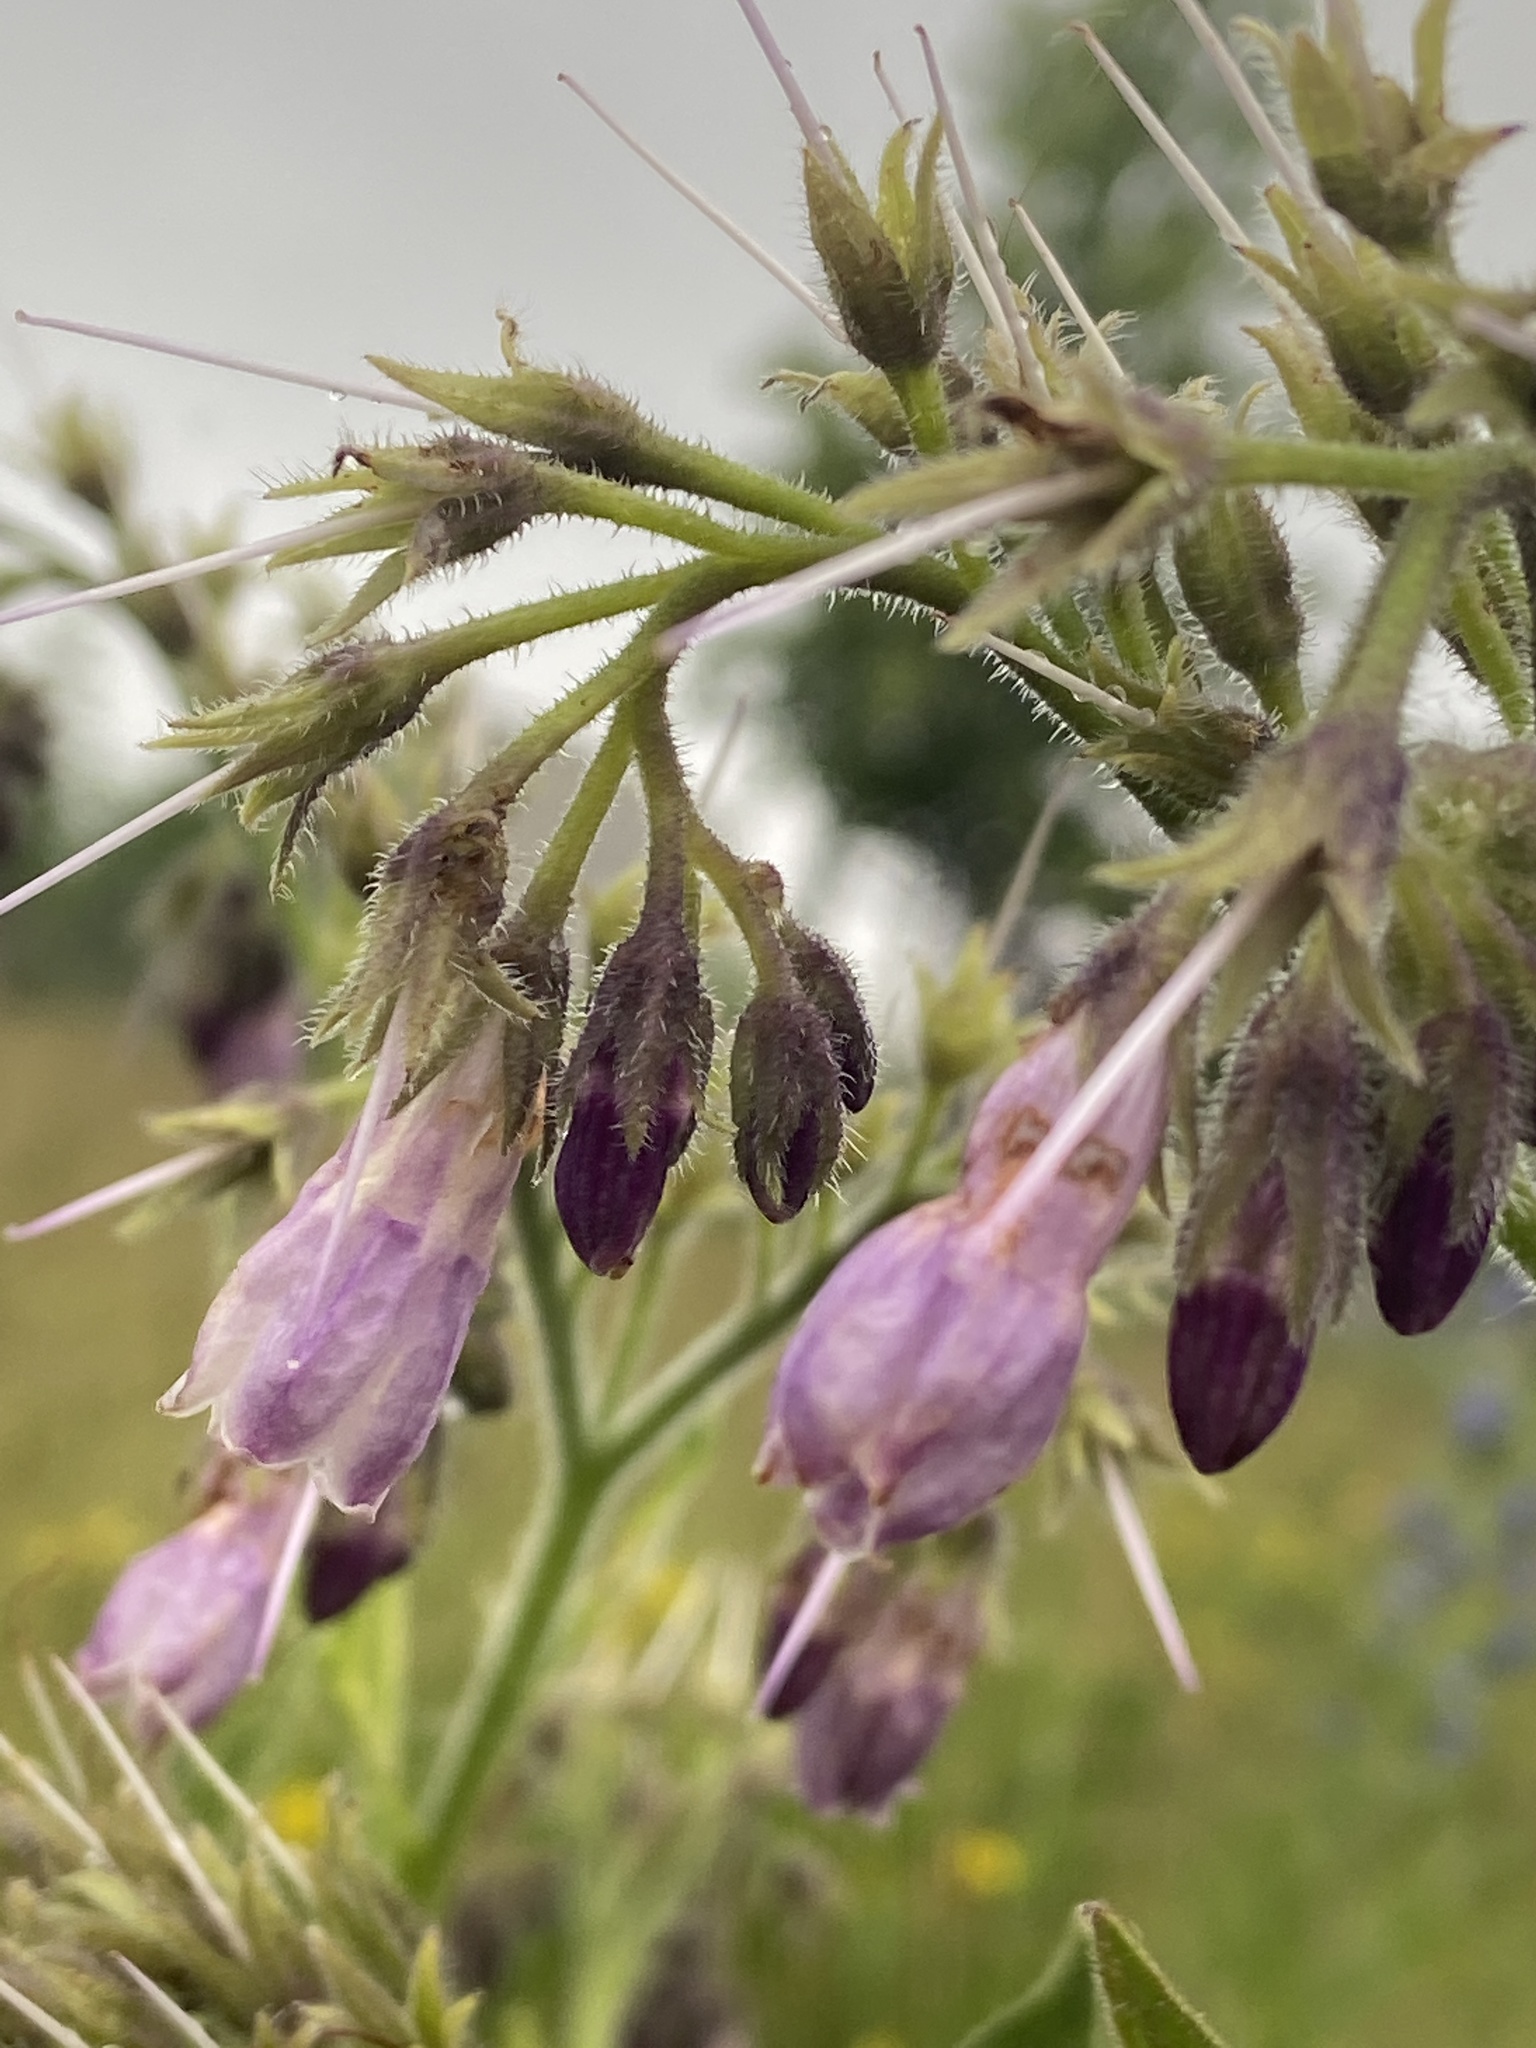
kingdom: Plantae
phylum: Tracheophyta
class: Magnoliopsida
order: Boraginales
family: Boraginaceae
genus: Symphytum
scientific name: Symphytum officinale
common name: Common comfrey
